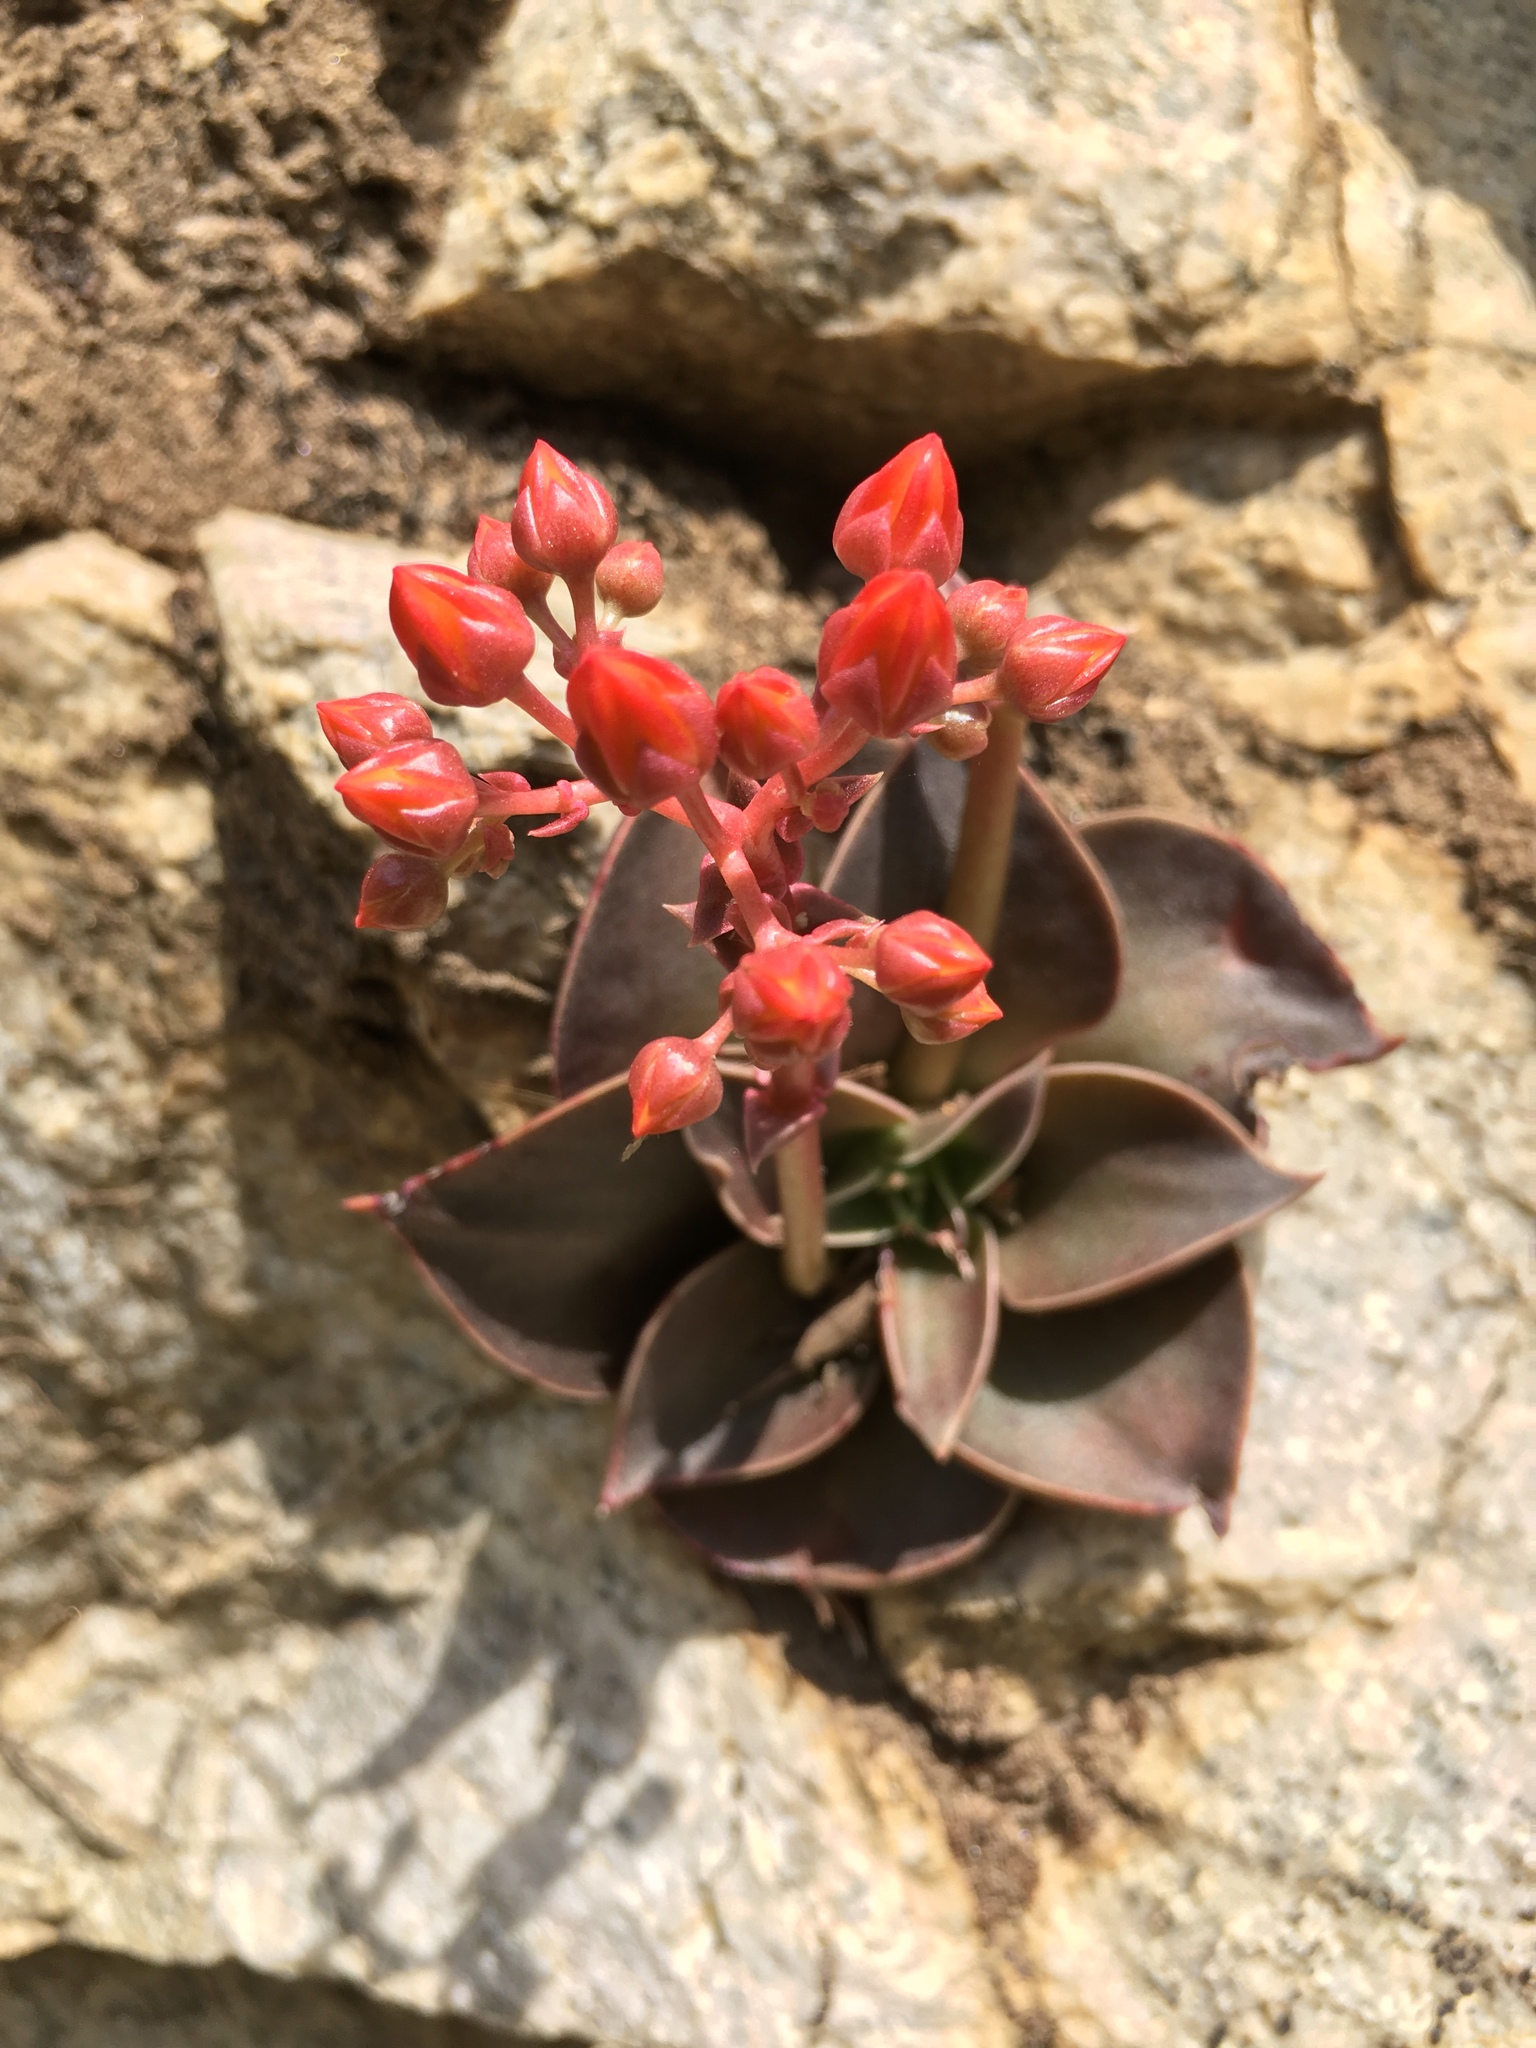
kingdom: Plantae
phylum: Tracheophyta
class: Magnoliopsida
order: Saxifragales
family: Crassulaceae
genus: Dudleya
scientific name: Dudleya cymosa
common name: Canyon dudleya
